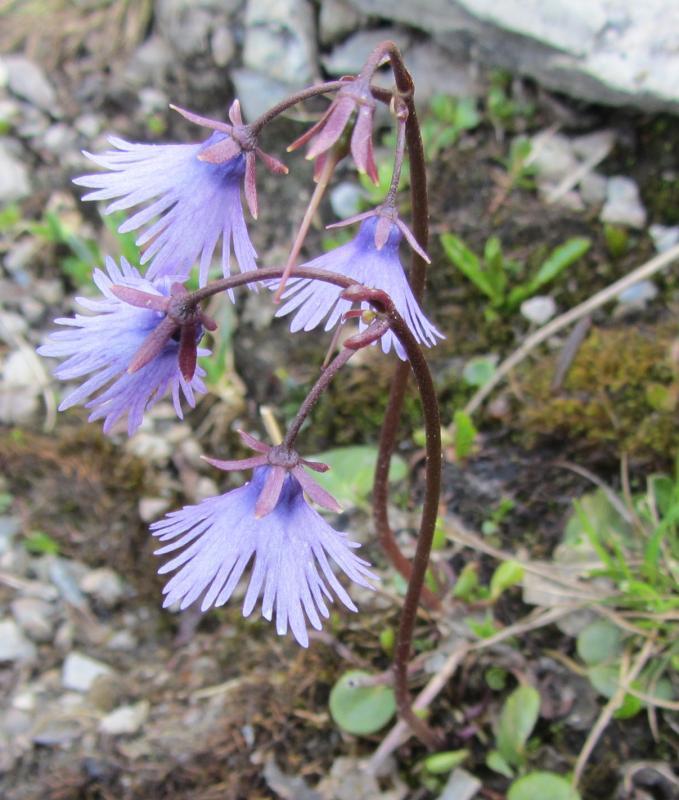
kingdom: Plantae
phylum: Tracheophyta
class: Magnoliopsida
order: Ericales
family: Primulaceae
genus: Soldanella
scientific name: Soldanella alpina
